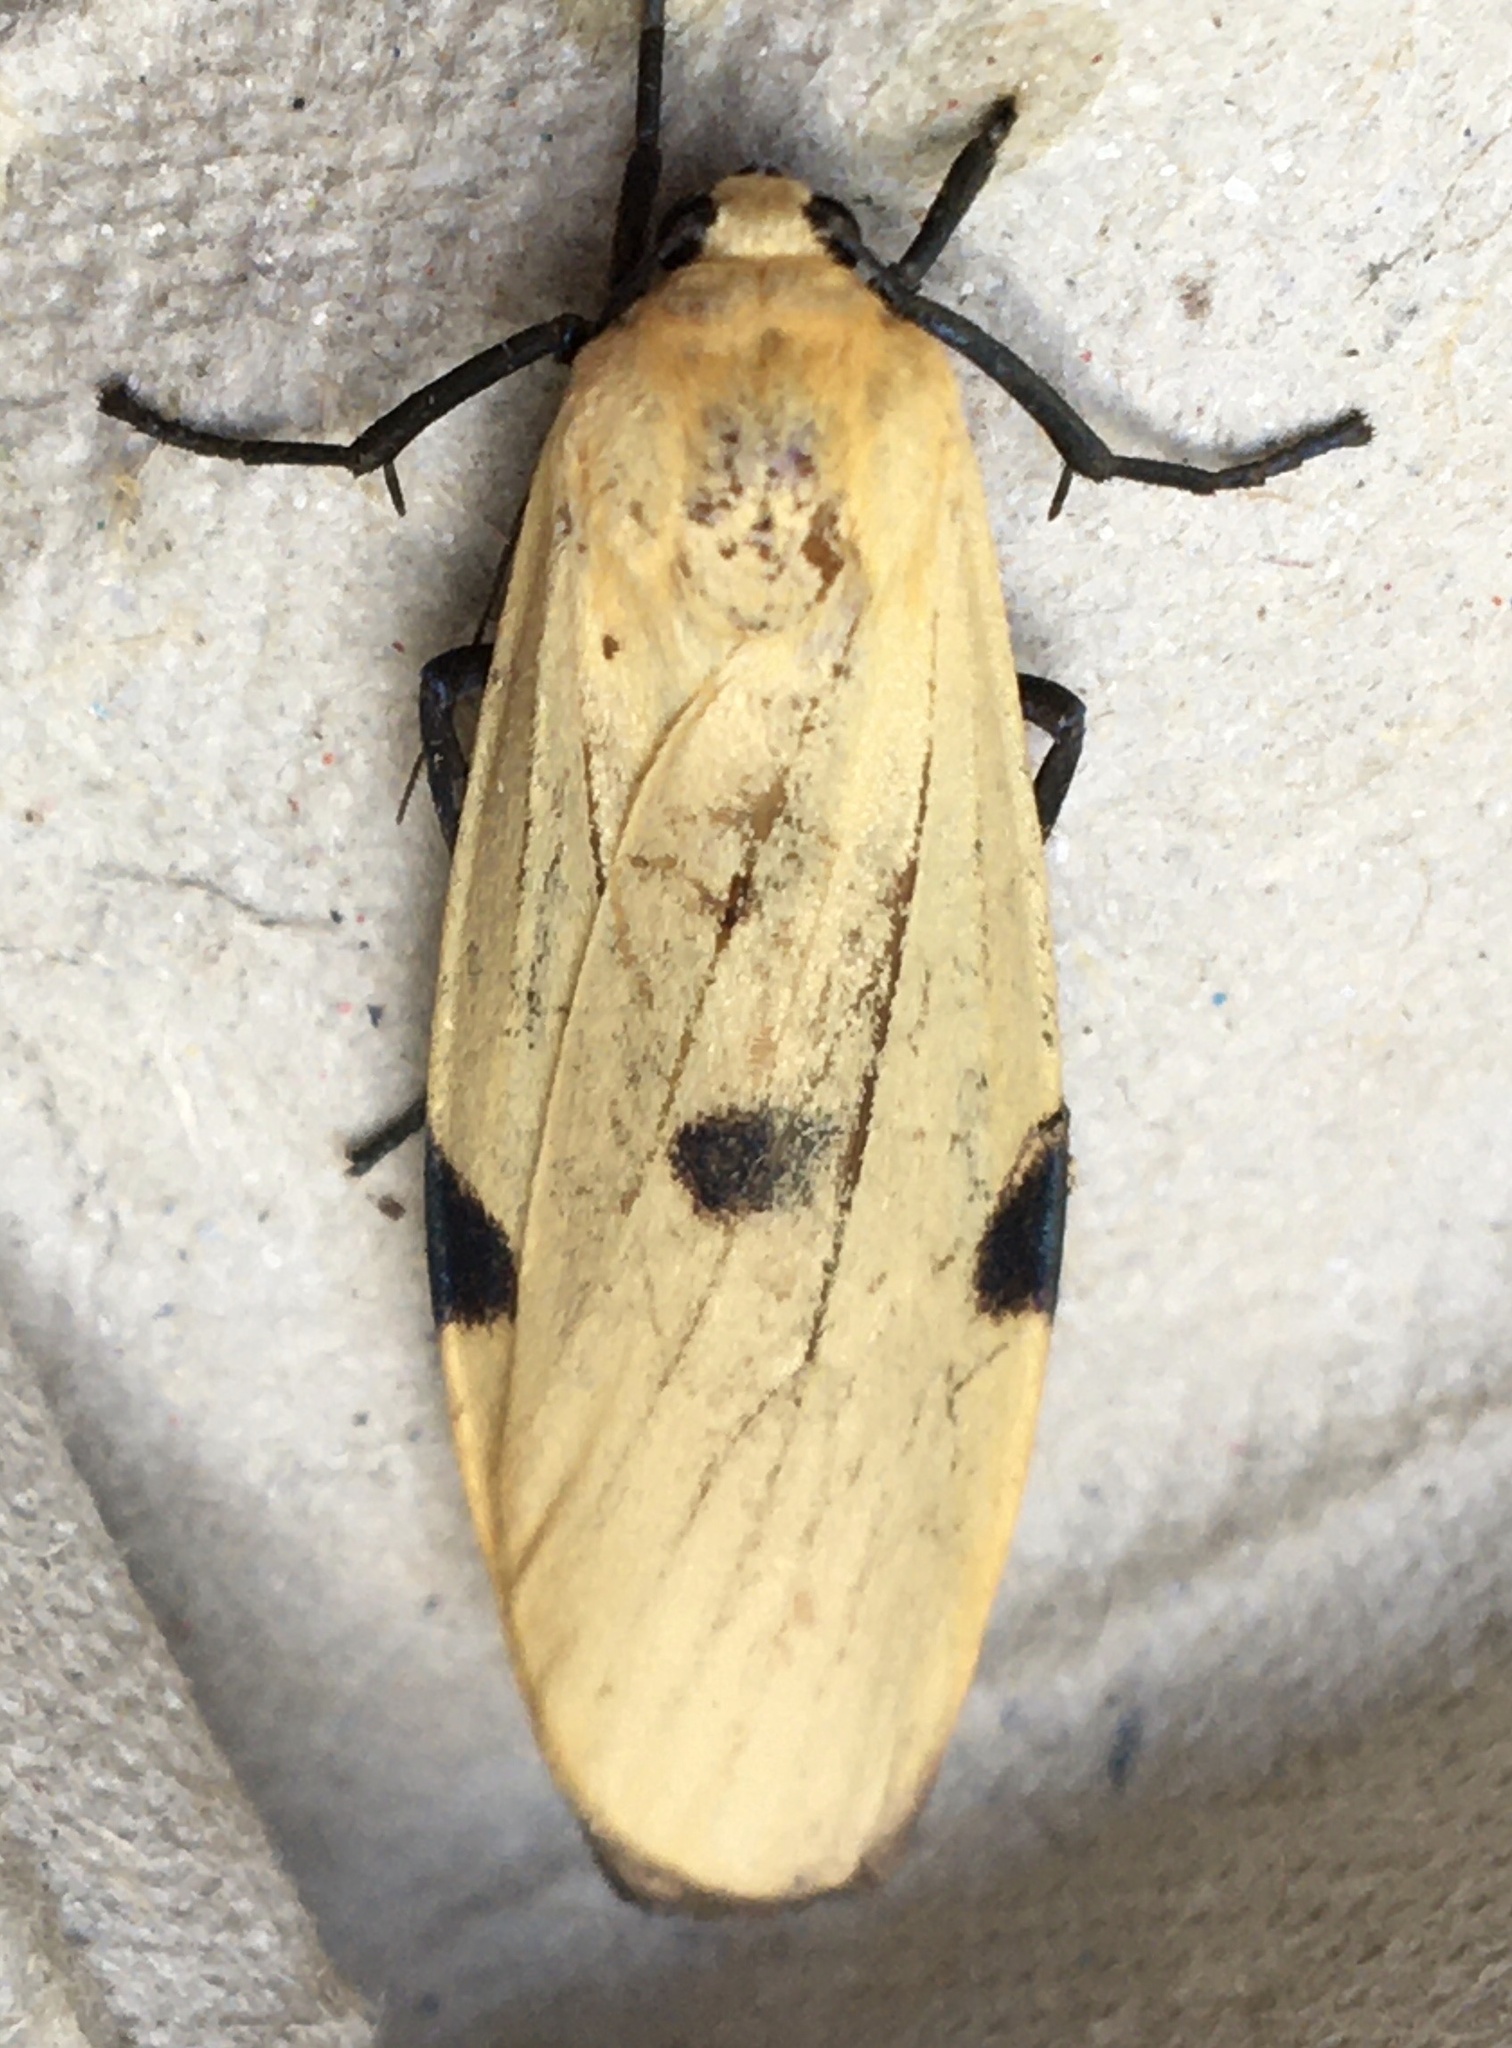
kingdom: Animalia
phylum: Arthropoda
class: Insecta
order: Lepidoptera
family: Erebidae
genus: Lithosia
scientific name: Lithosia quadra
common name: Four-spotted footman
